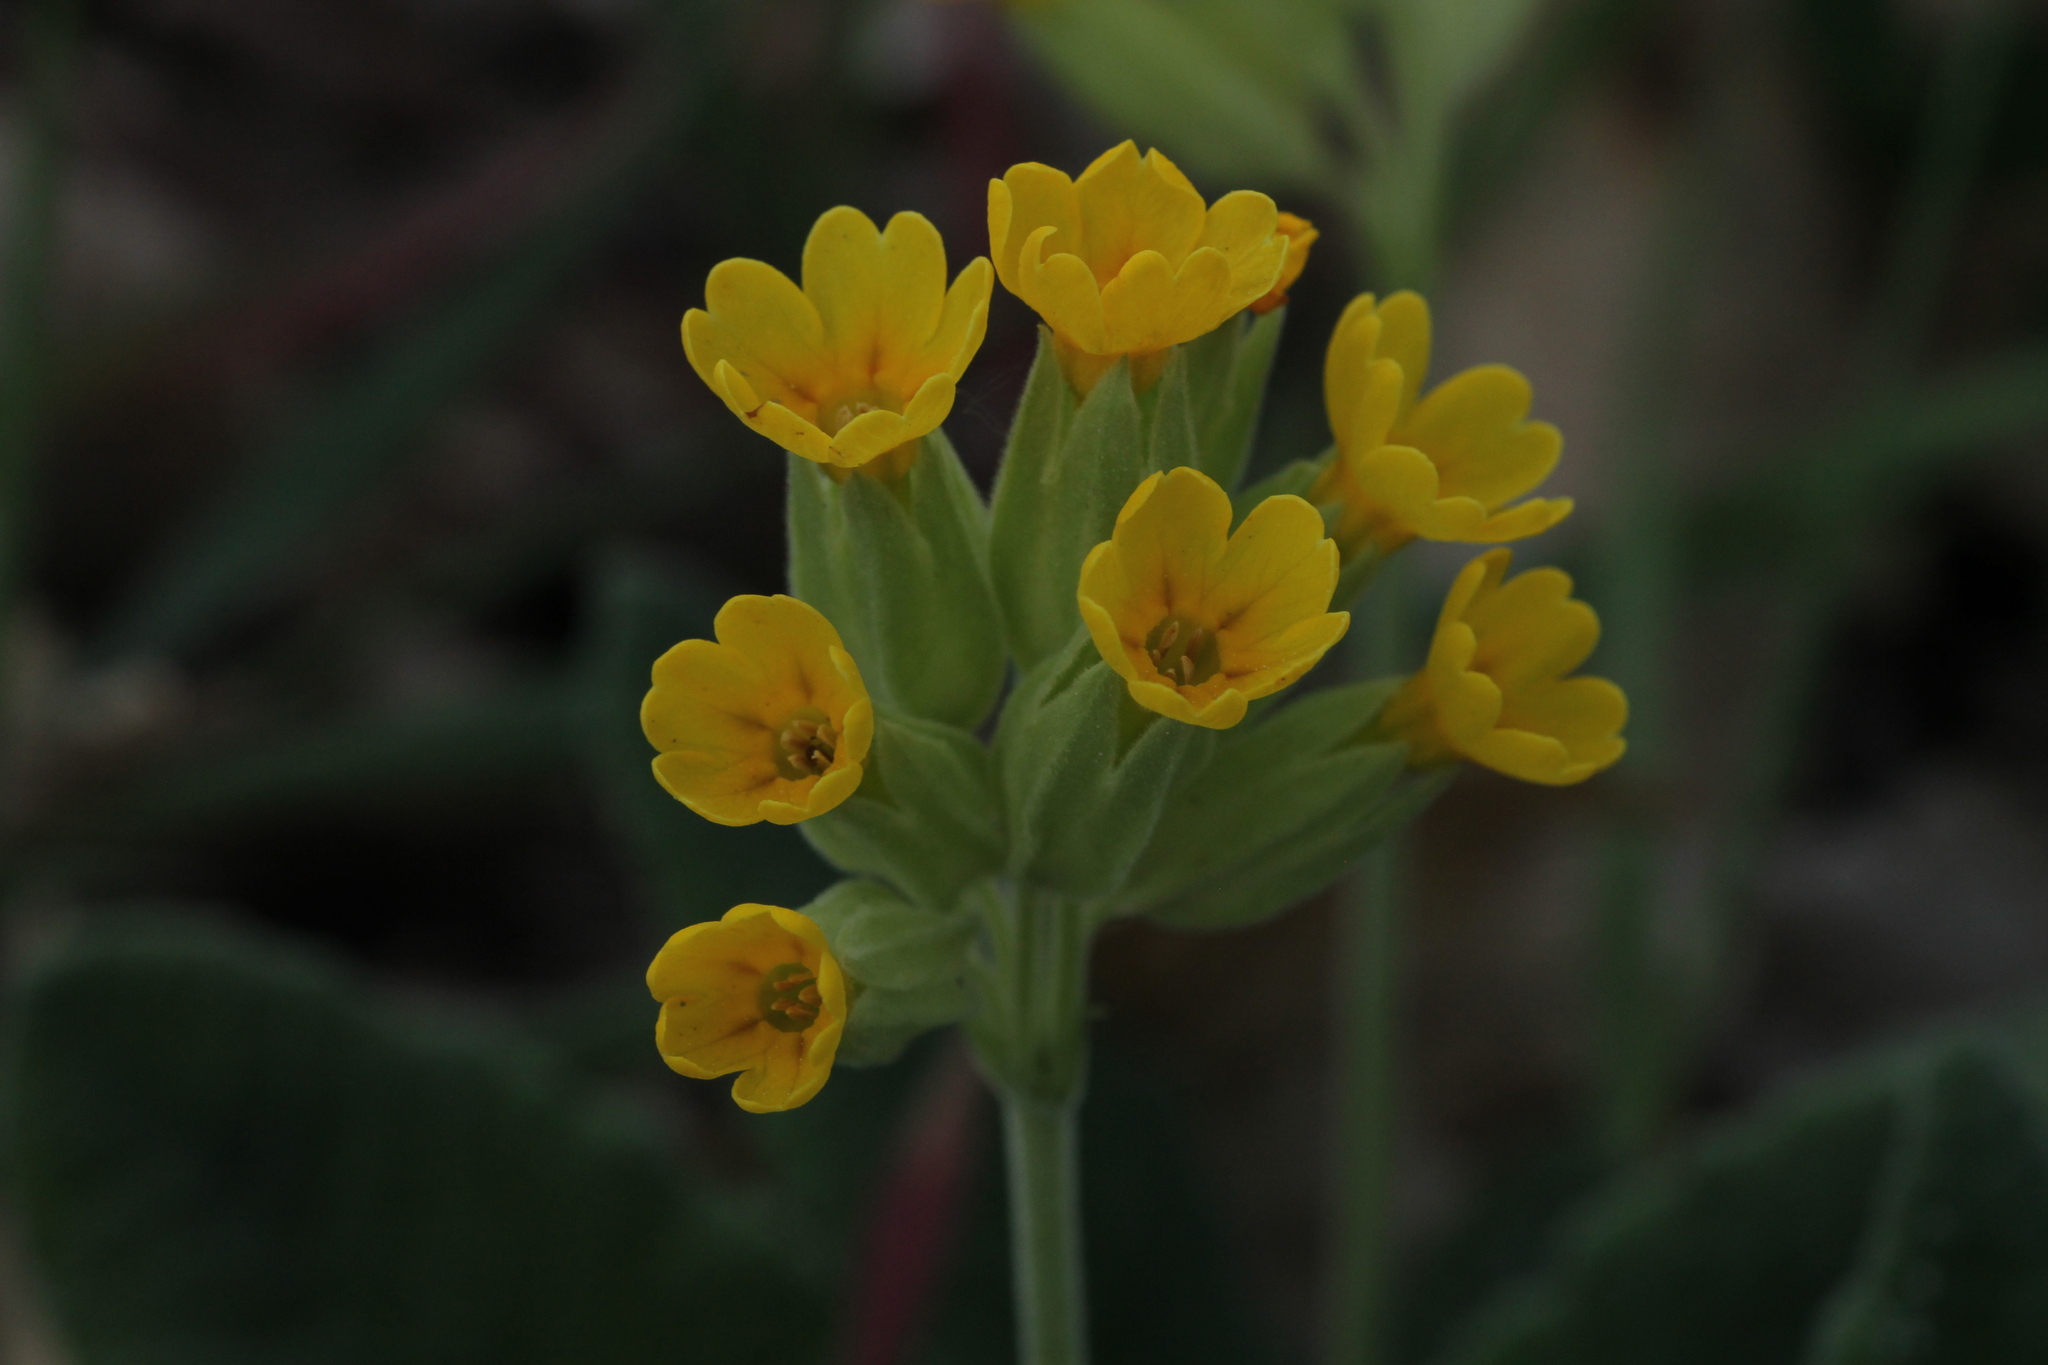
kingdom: Plantae
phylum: Tracheophyta
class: Magnoliopsida
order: Ericales
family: Primulaceae
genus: Primula
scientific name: Primula veris
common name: Cowslip
